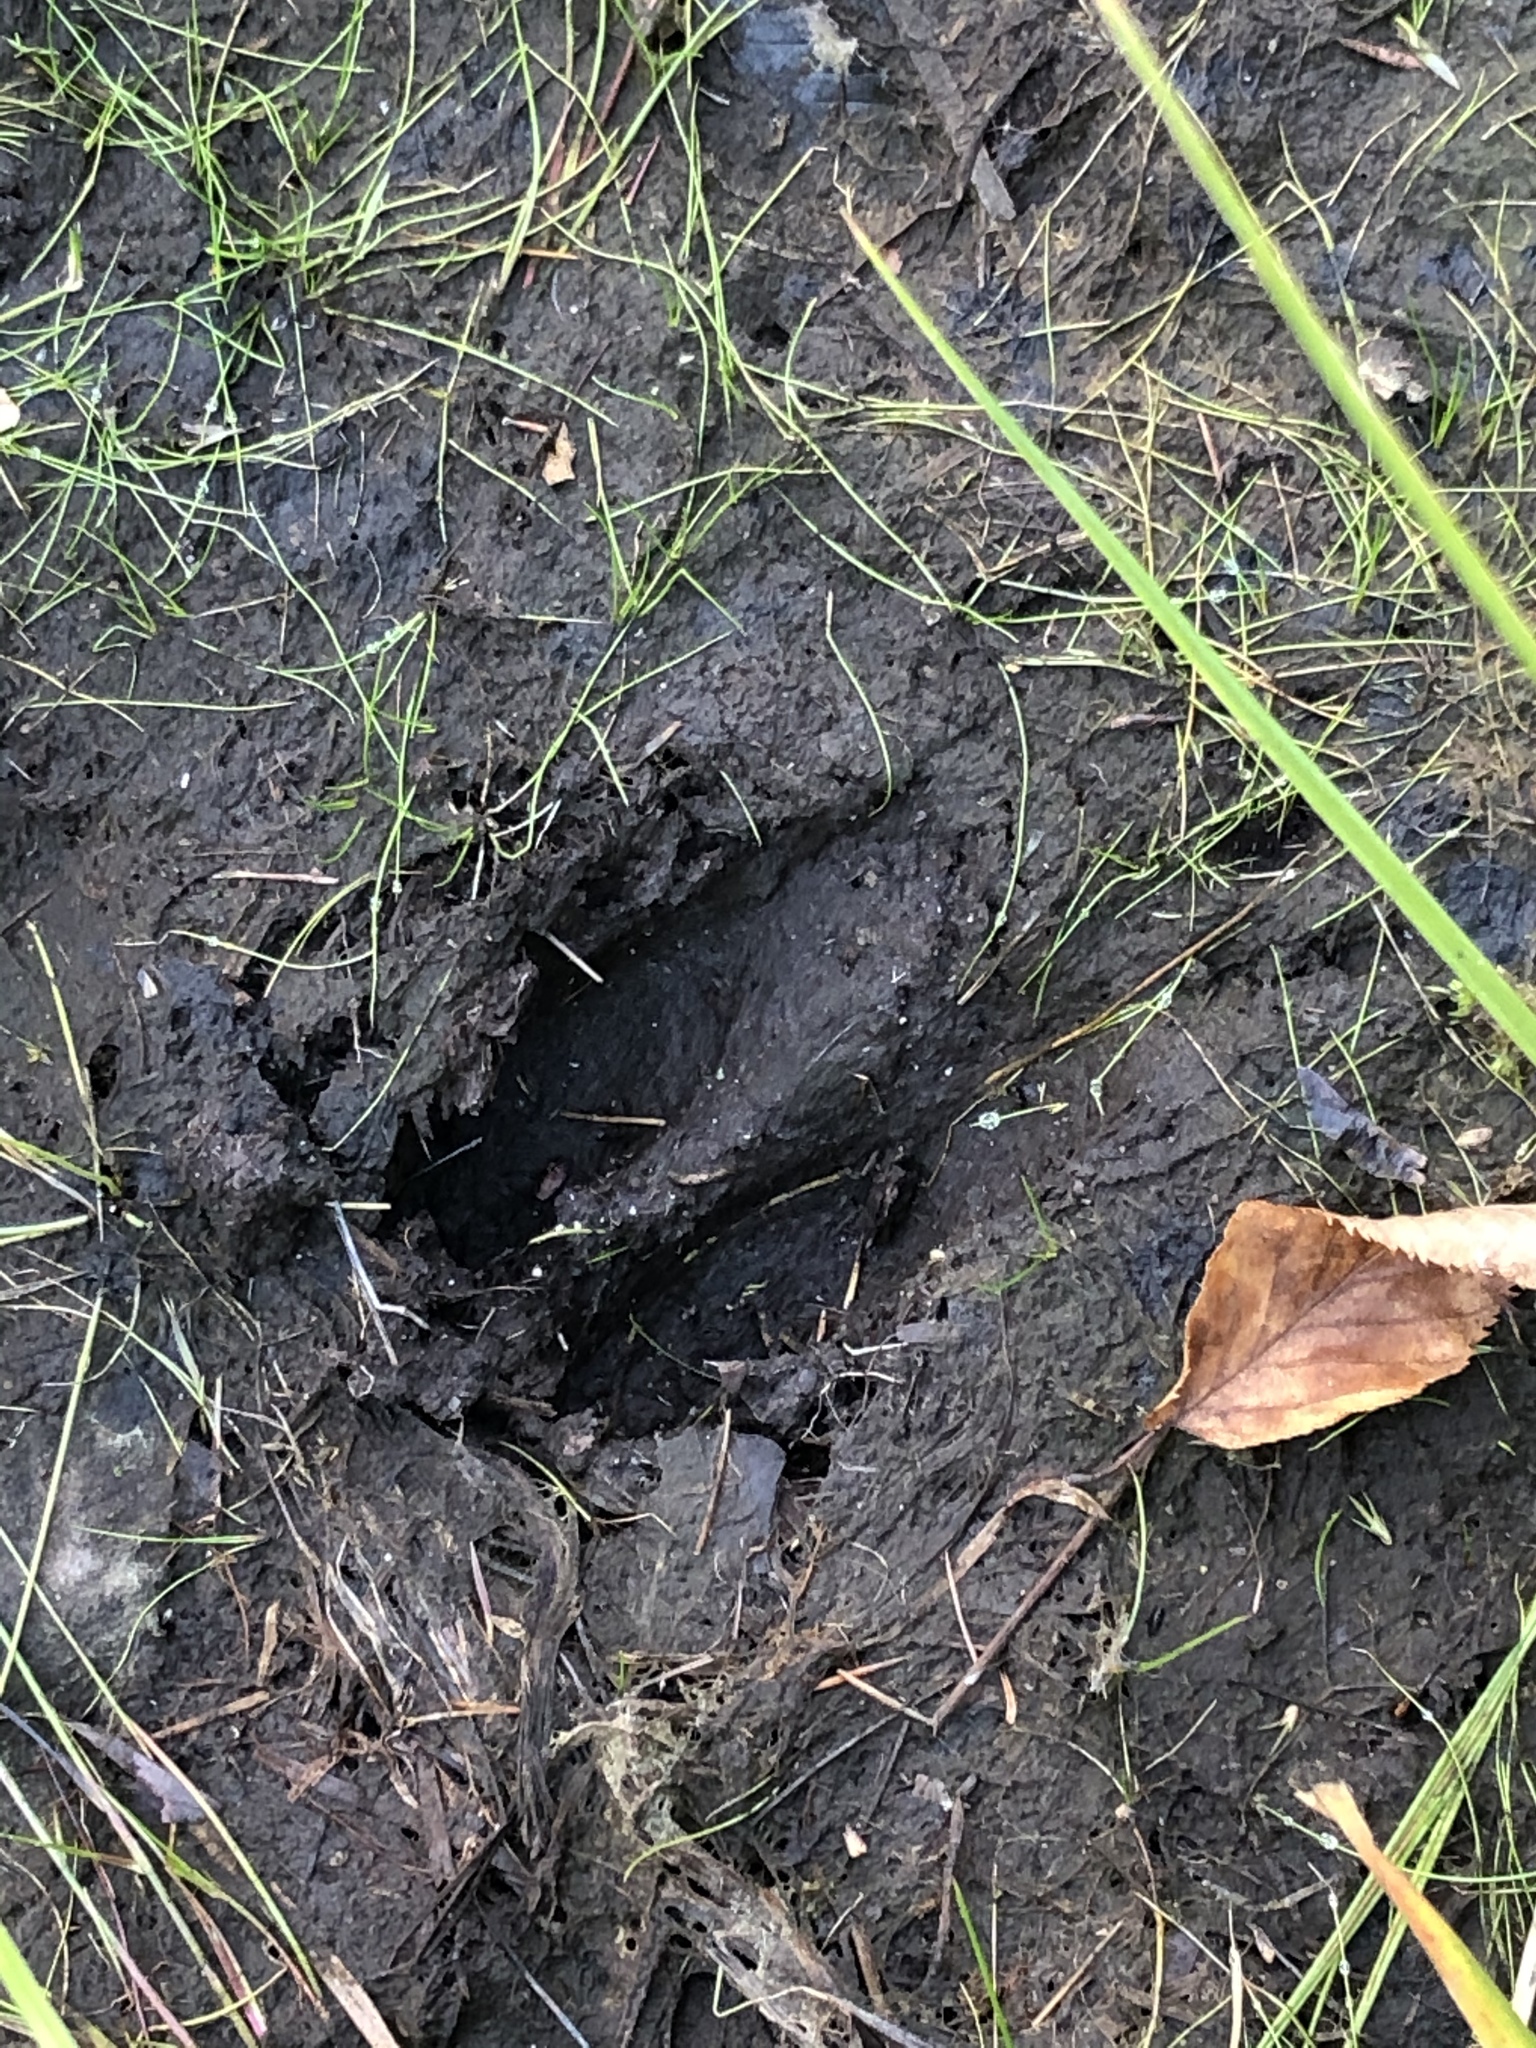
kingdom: Animalia
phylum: Chordata
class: Mammalia
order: Artiodactyla
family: Cervidae
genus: Odocoileus
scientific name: Odocoileus virginianus
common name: White-tailed deer
